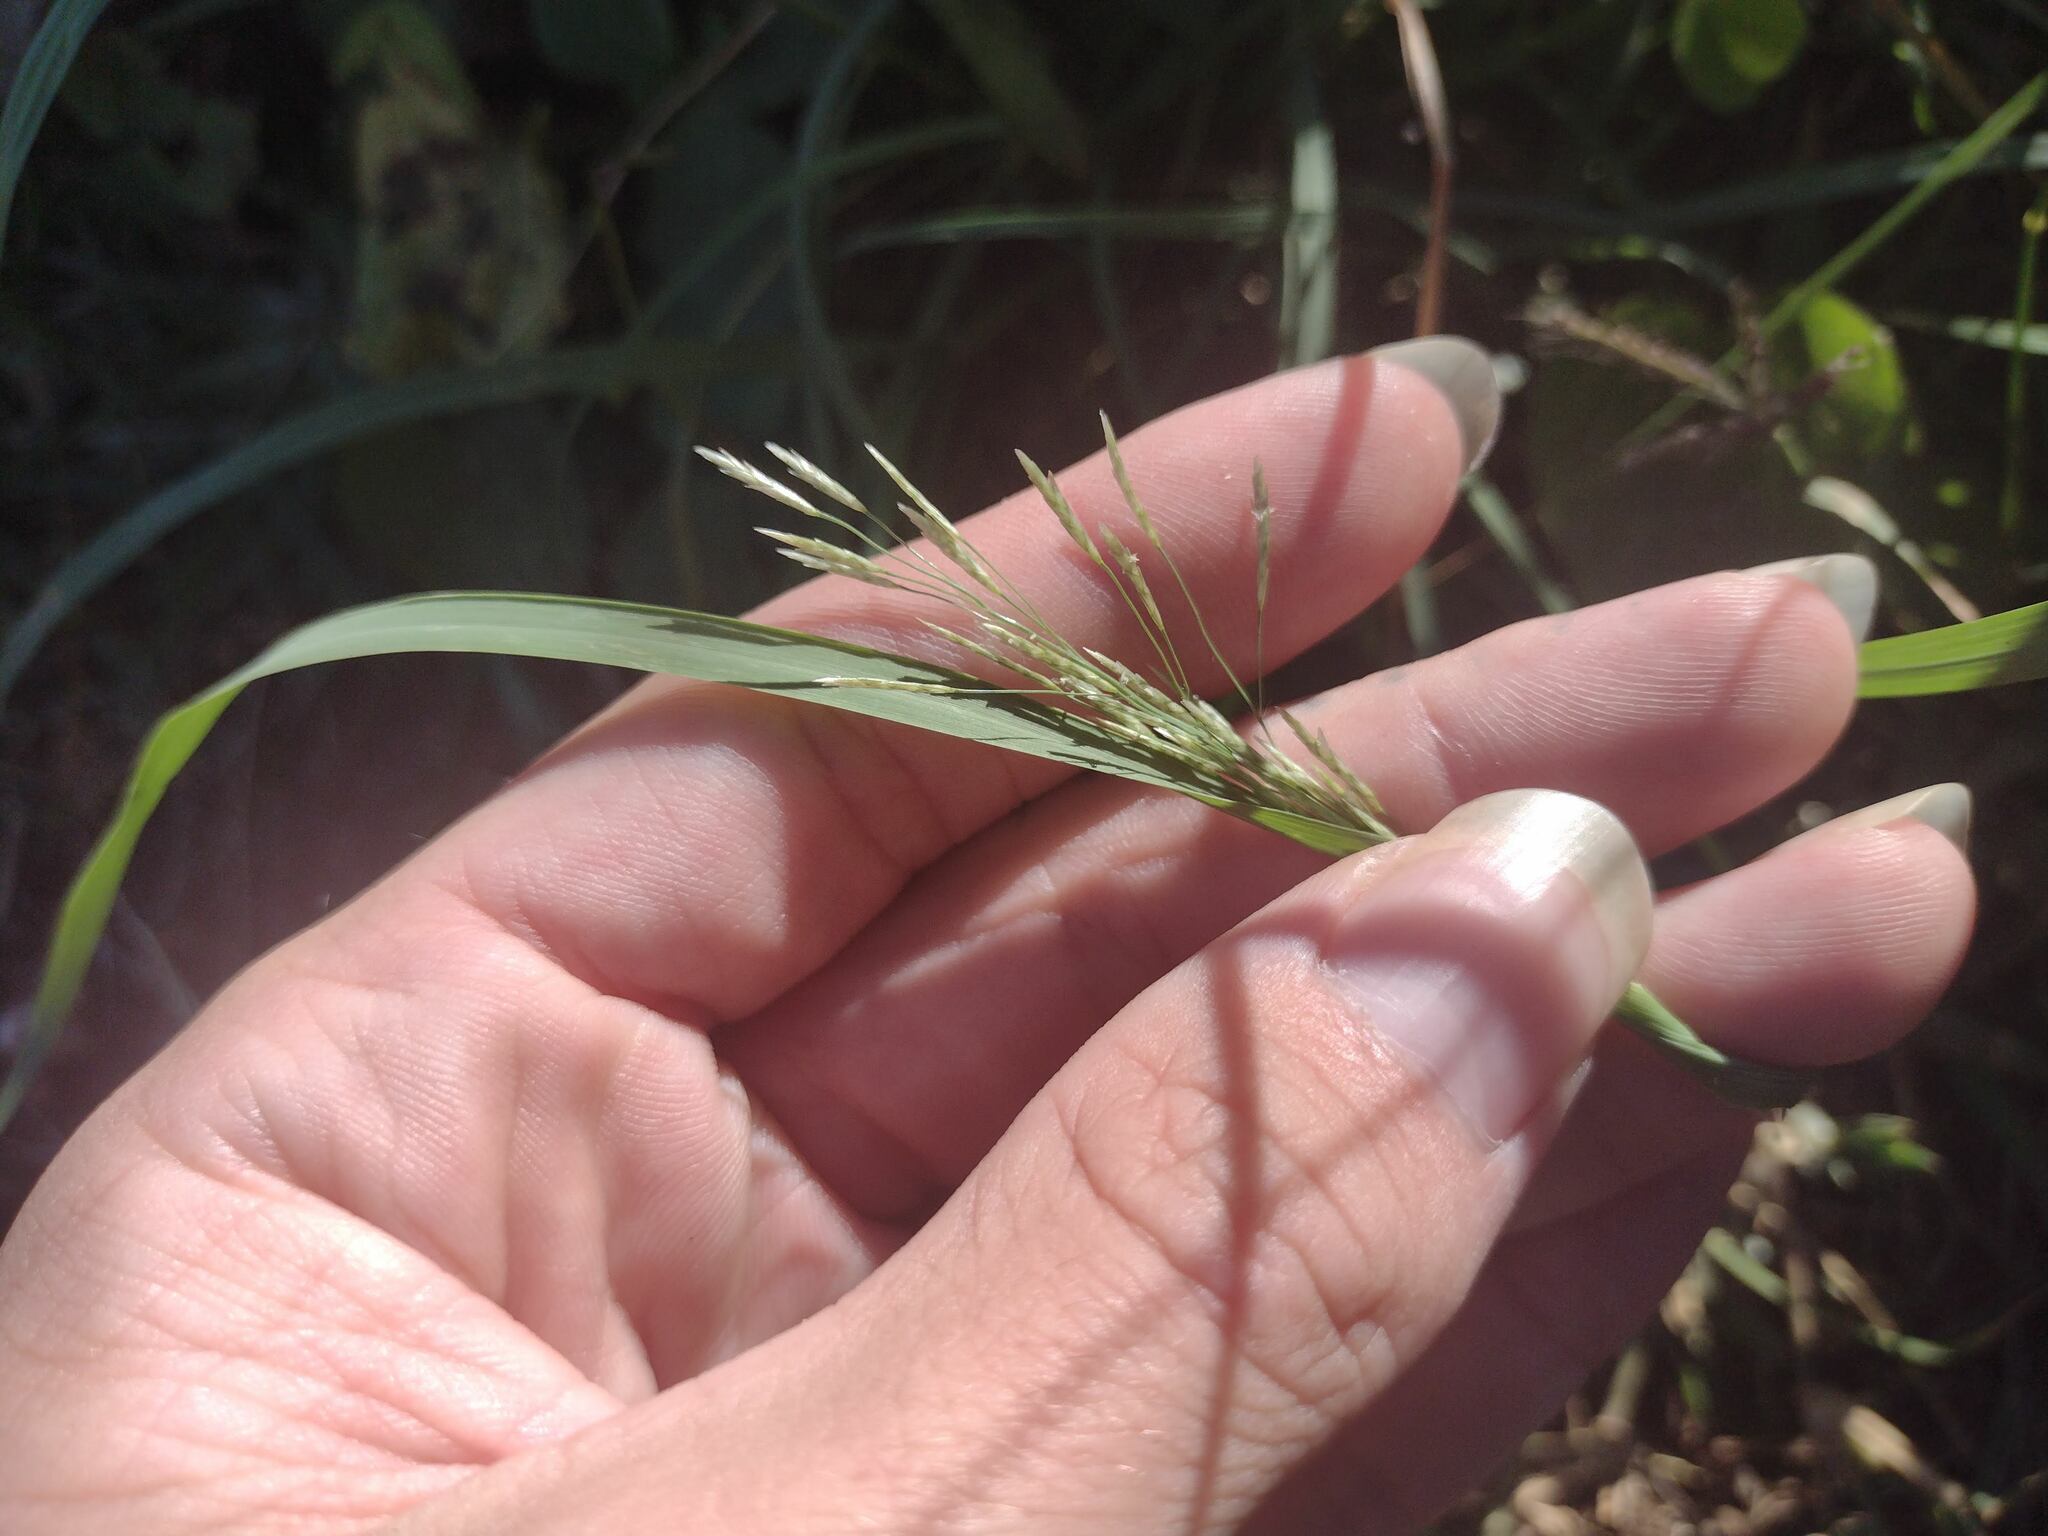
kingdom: Plantae
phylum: Tracheophyta
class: Liliopsida
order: Poales
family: Poaceae
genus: Eragrostis
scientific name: Eragrostis tenuifolia
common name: Elastic grass
